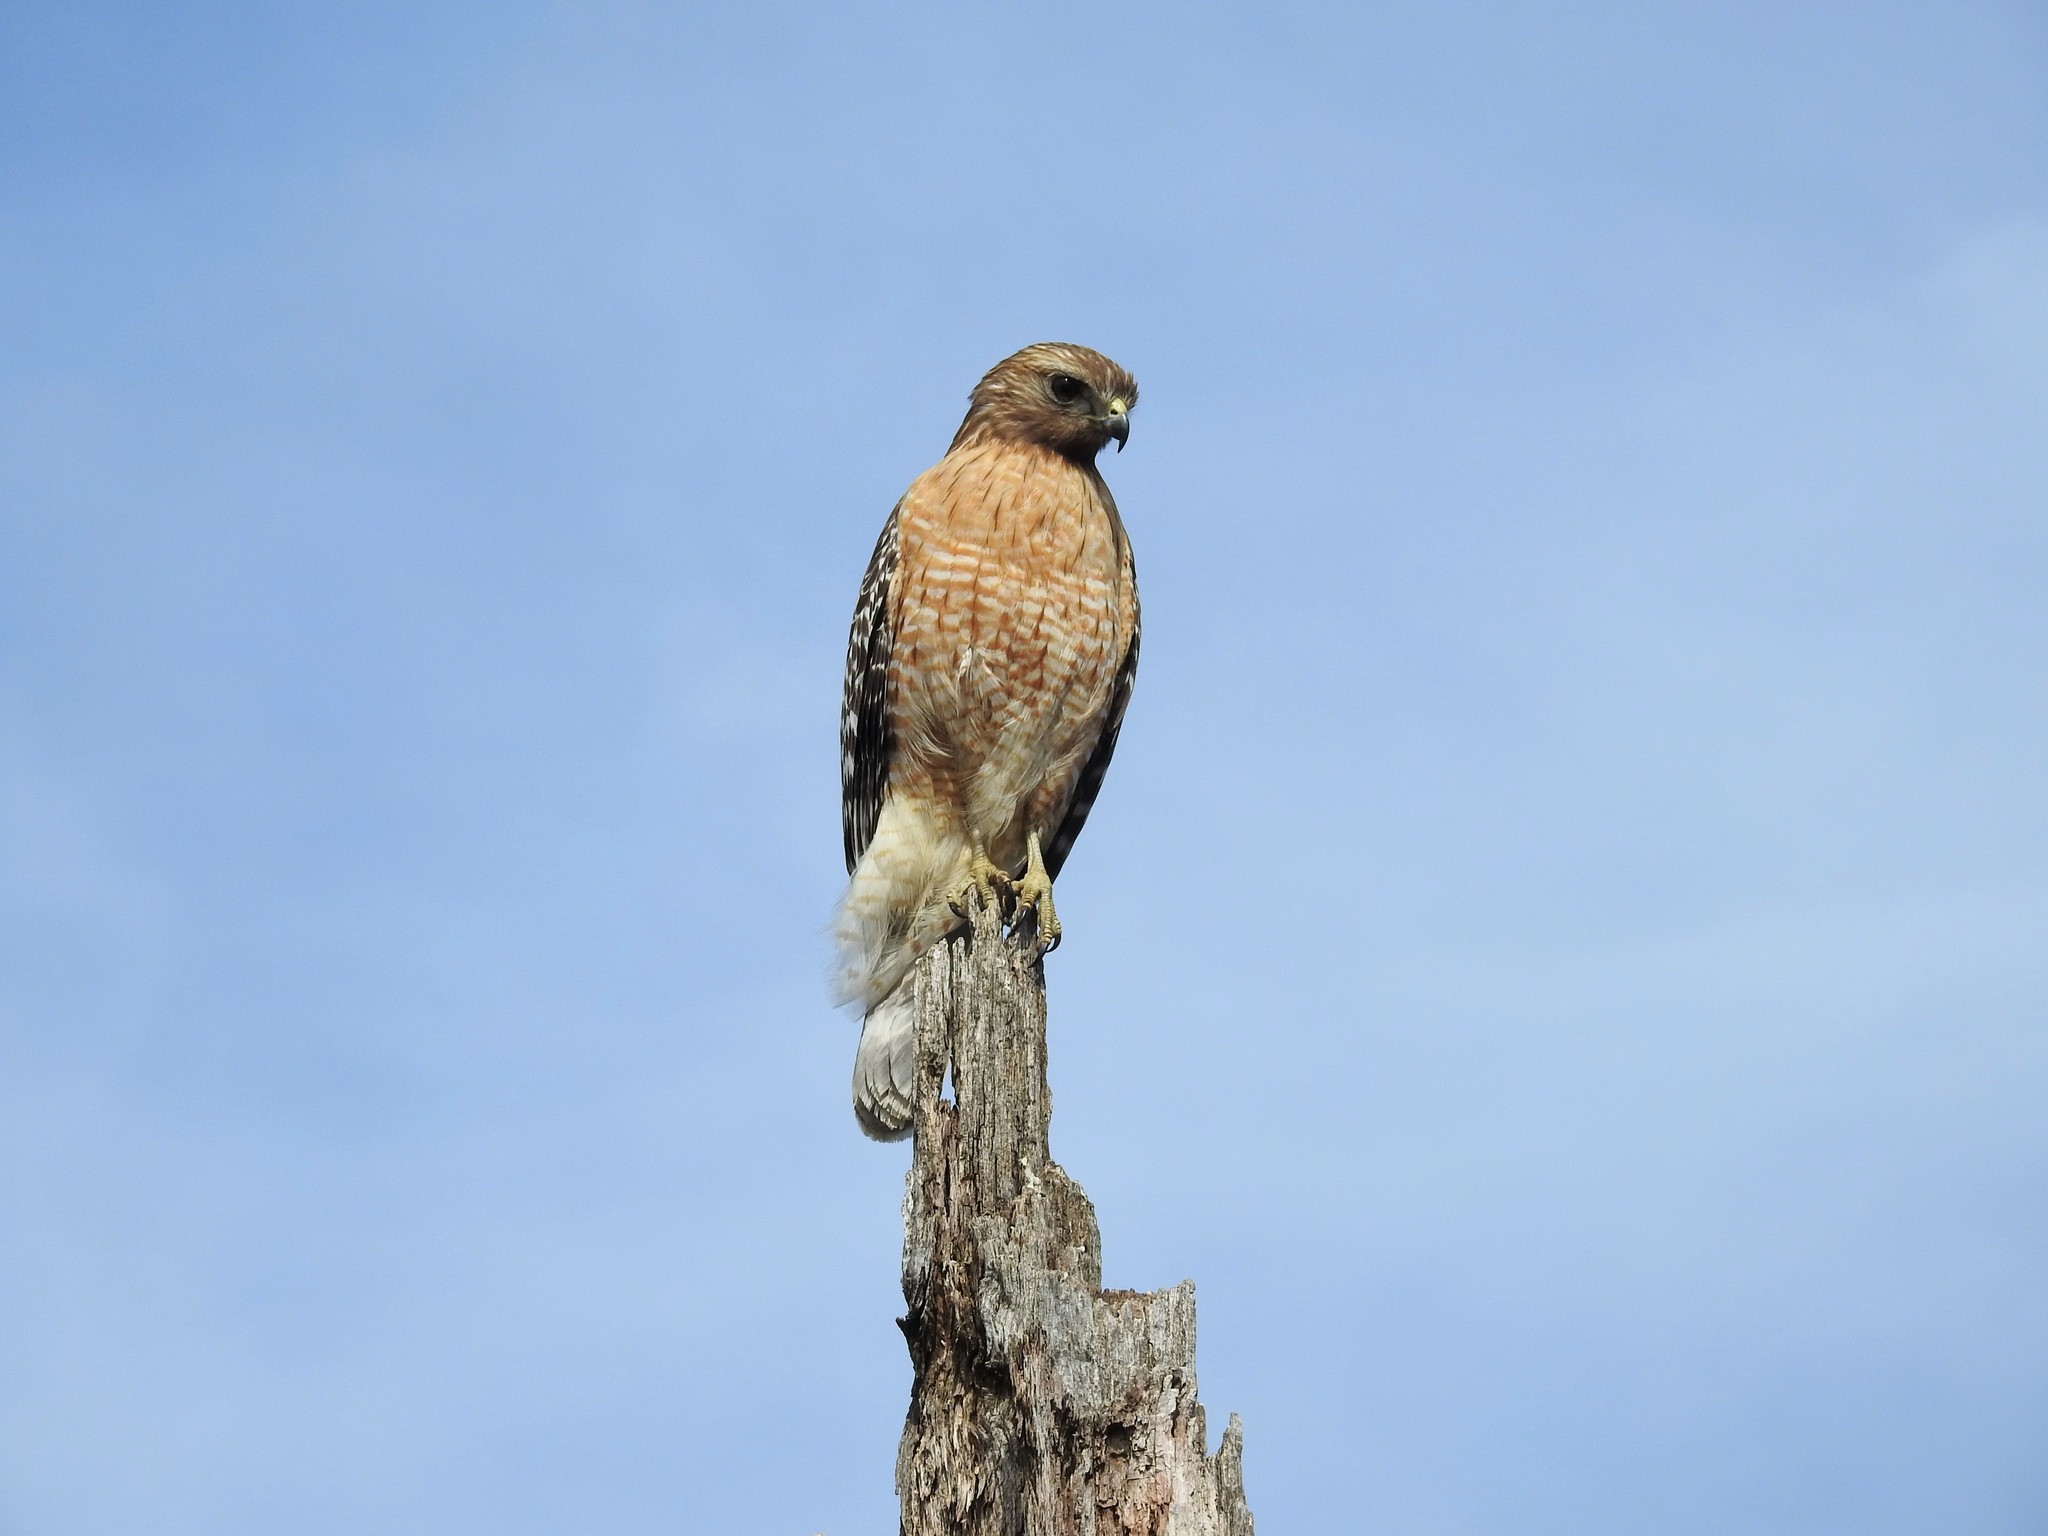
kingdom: Animalia
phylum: Chordata
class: Aves
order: Accipitriformes
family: Accipitridae
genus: Buteo
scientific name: Buteo lineatus
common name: Red-shouldered hawk
